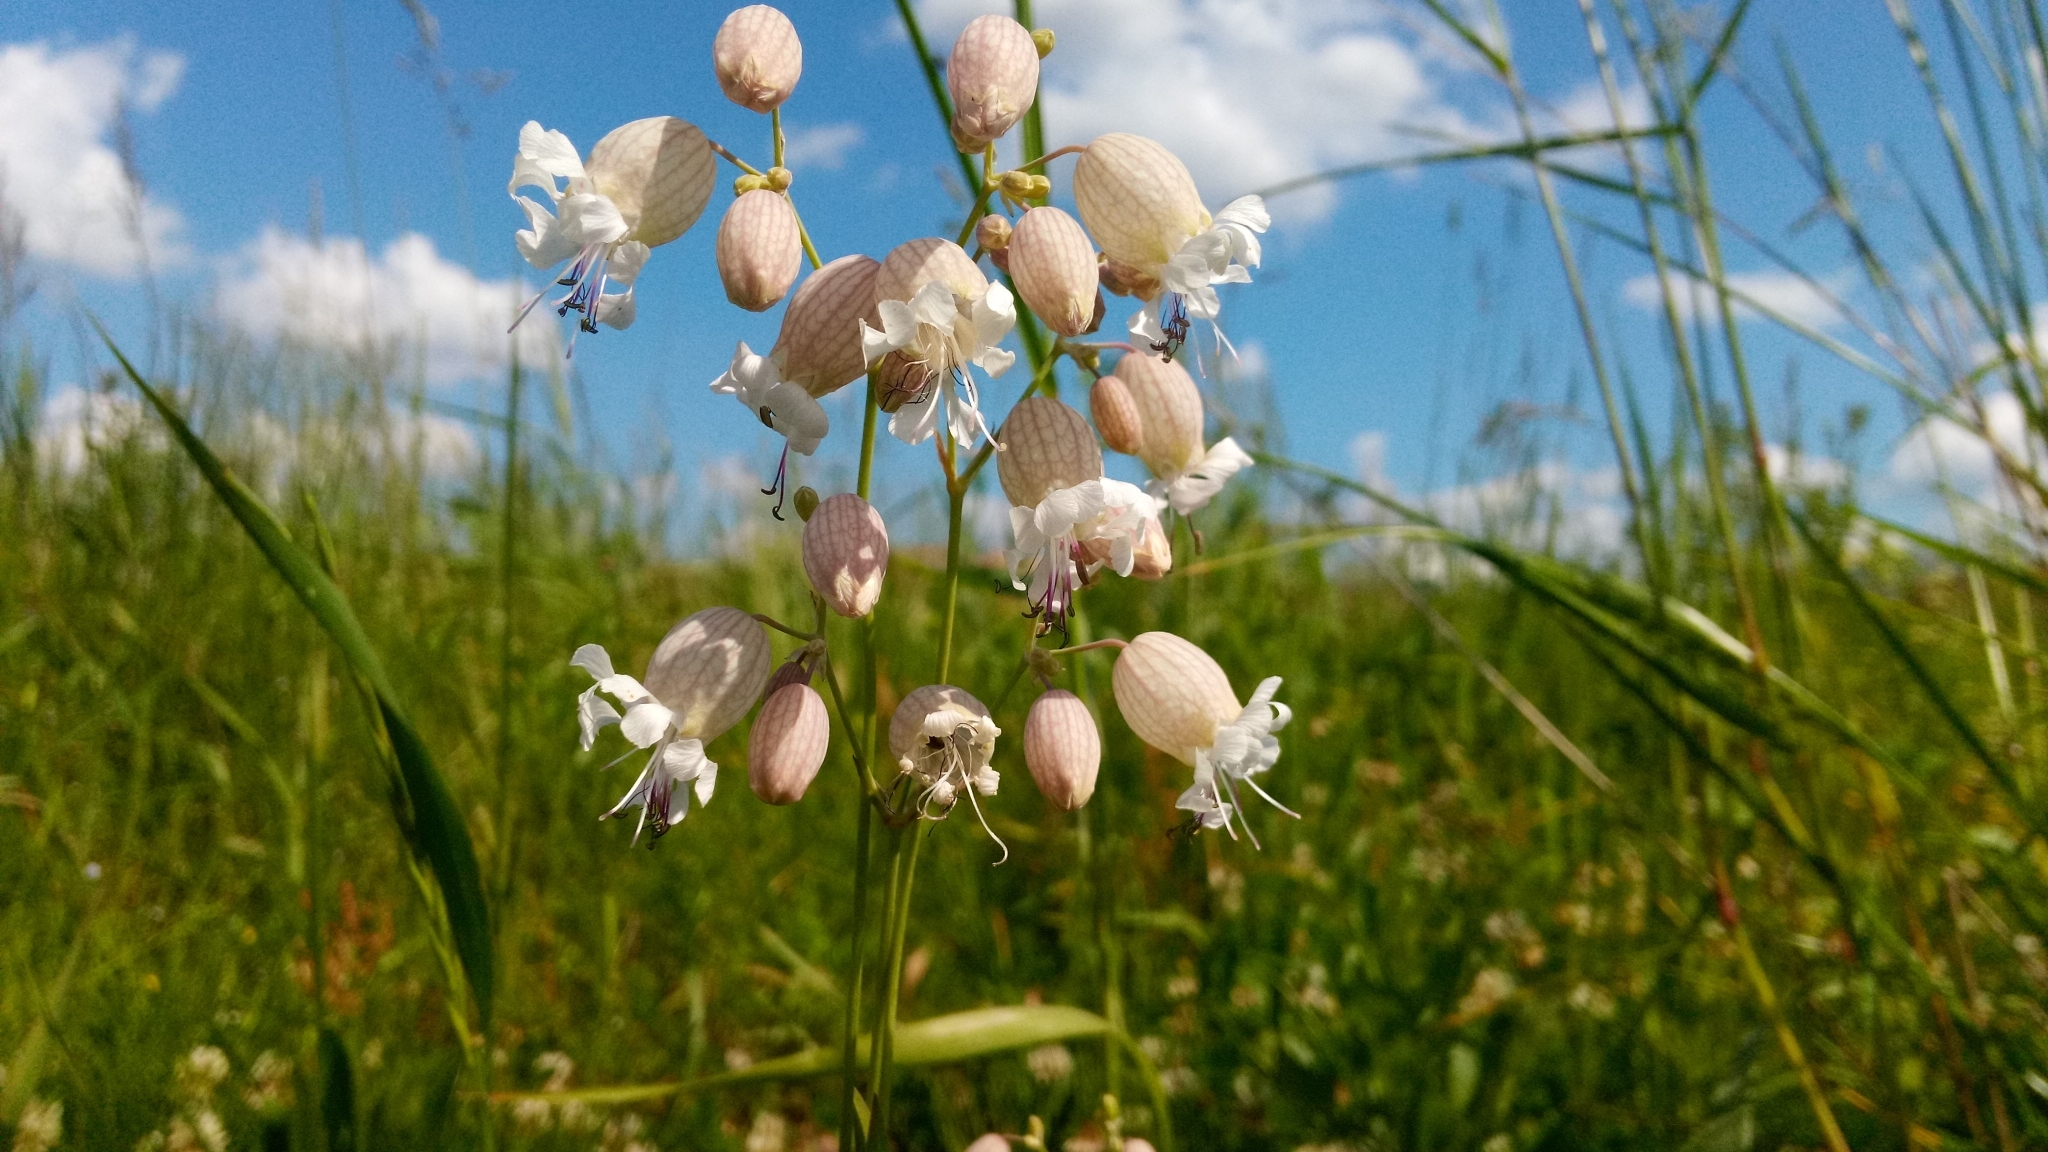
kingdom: Plantae
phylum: Tracheophyta
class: Magnoliopsida
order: Caryophyllales
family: Caryophyllaceae
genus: Silene
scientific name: Silene vulgaris
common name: Bladder campion
